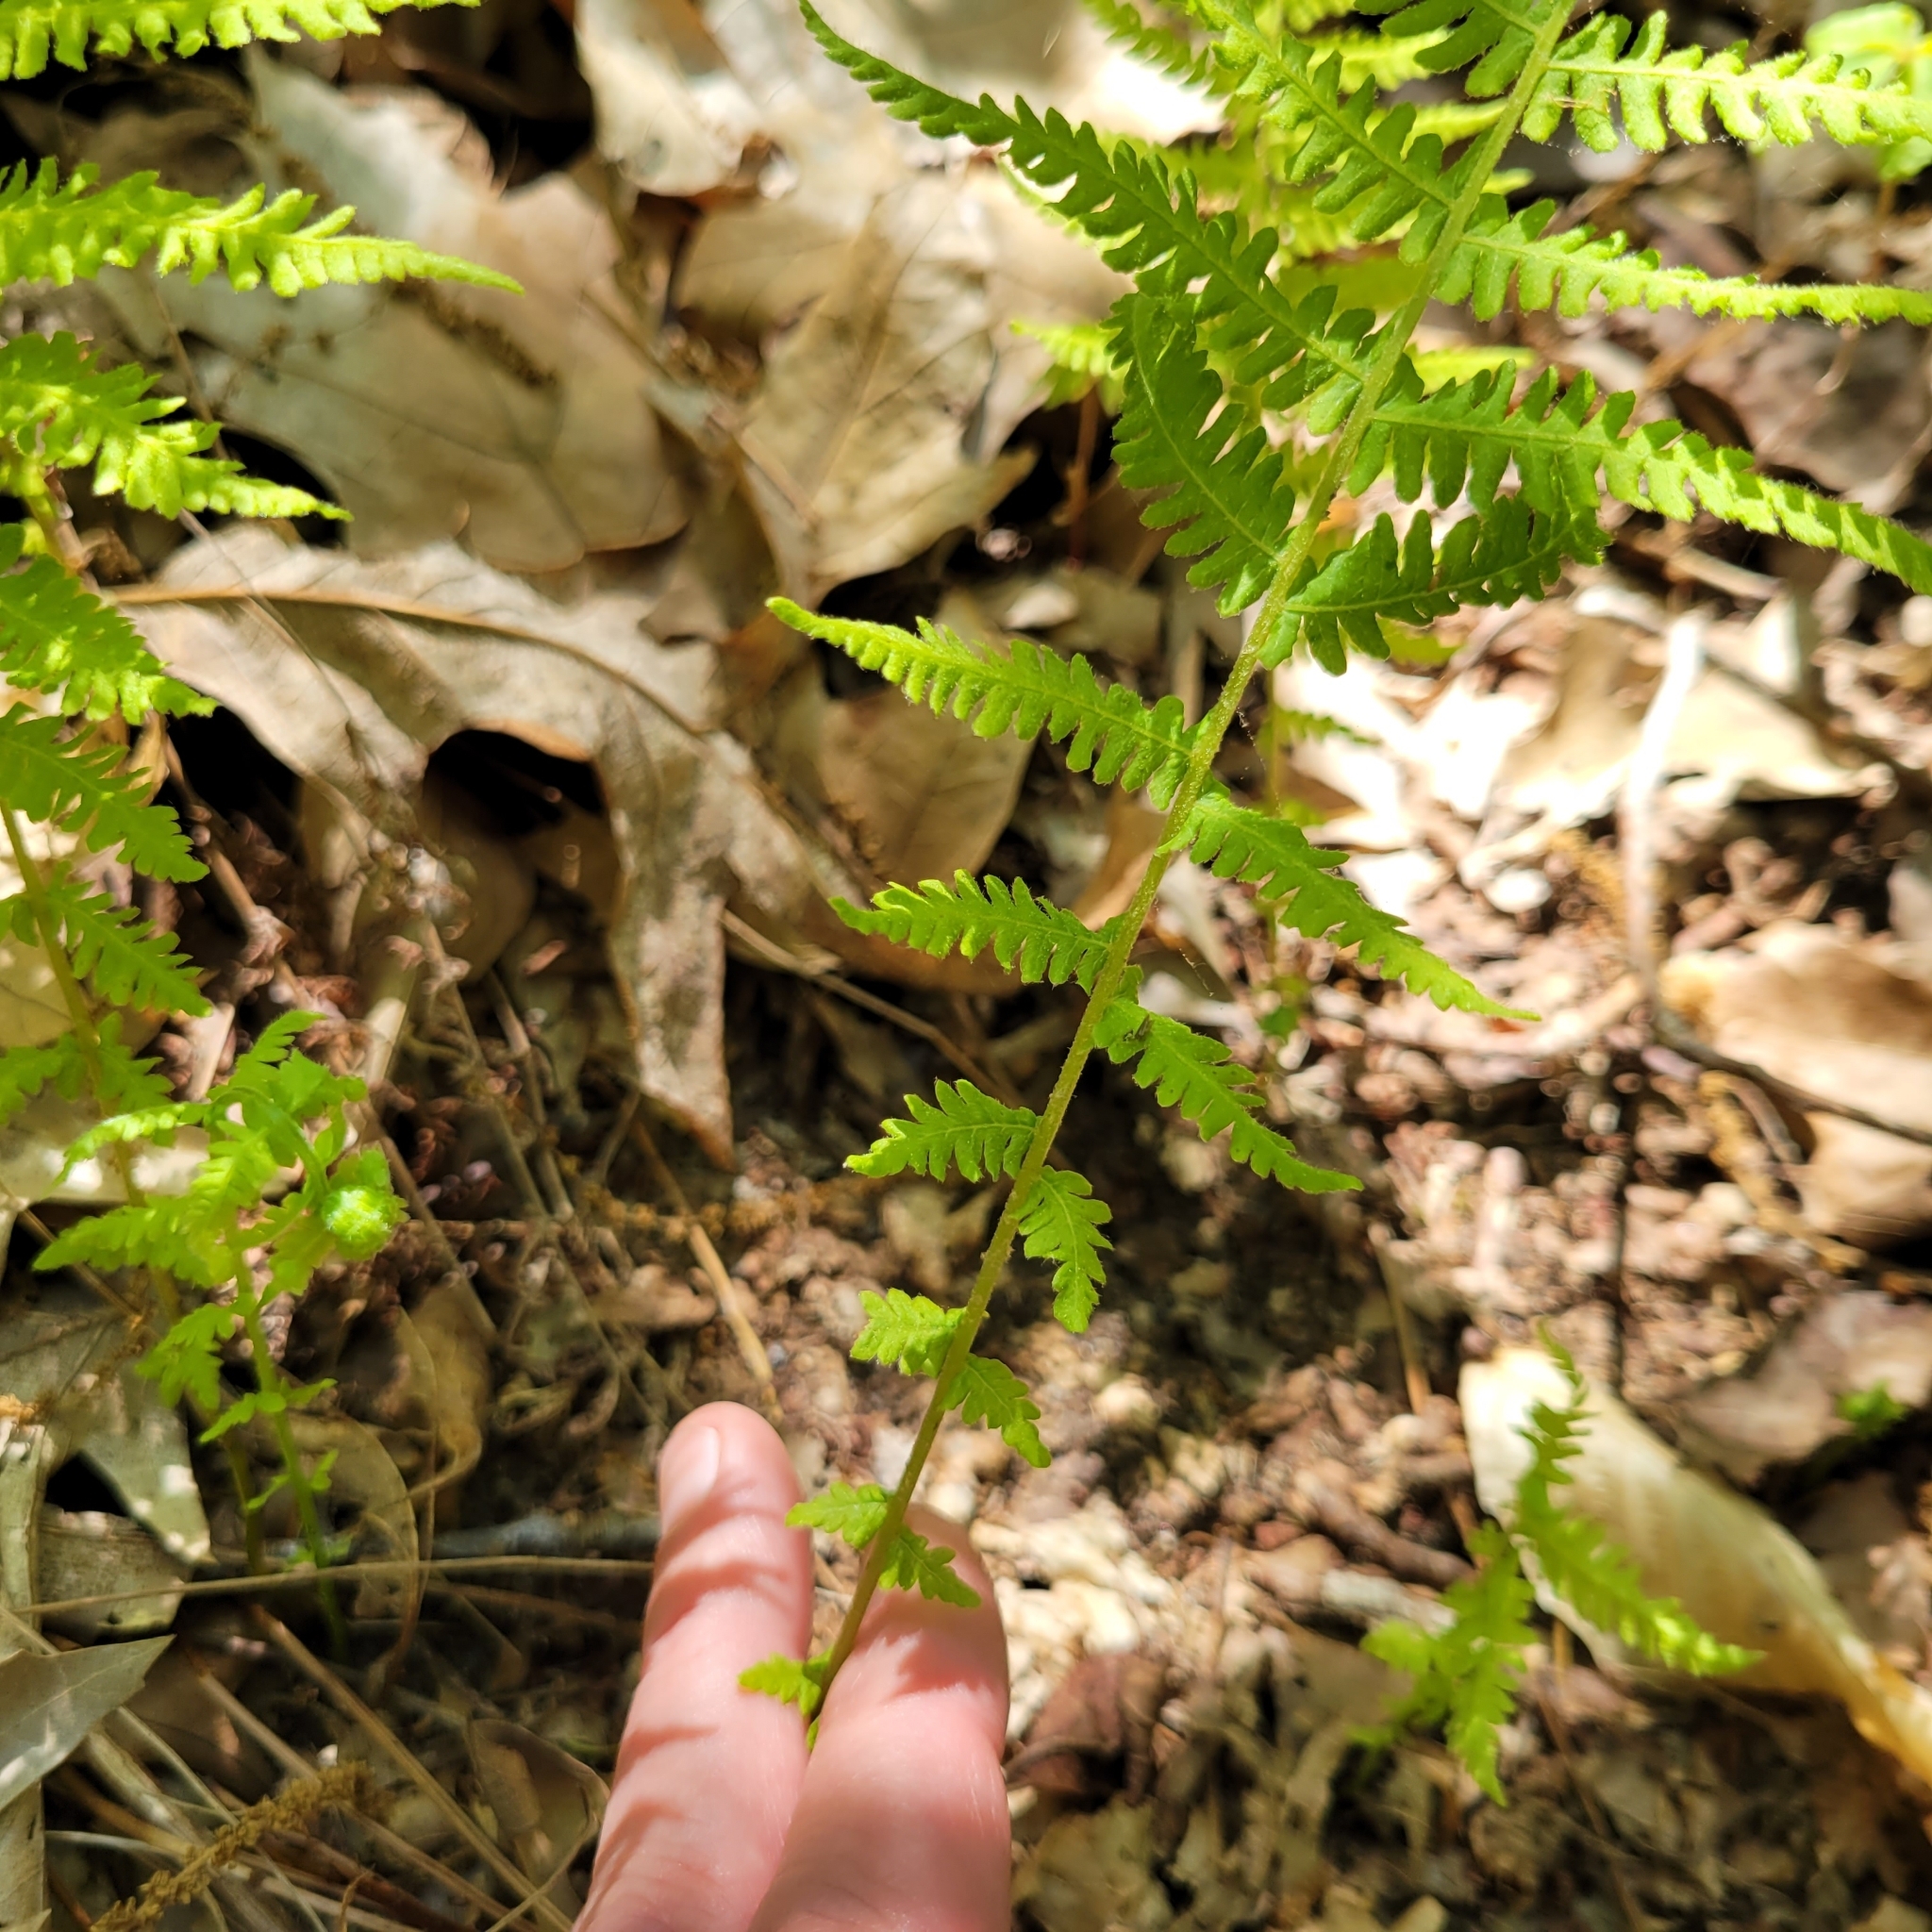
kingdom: Plantae
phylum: Tracheophyta
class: Polypodiopsida
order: Polypodiales
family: Thelypteridaceae
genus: Amauropelta
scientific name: Amauropelta noveboracensis
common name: New york fern
